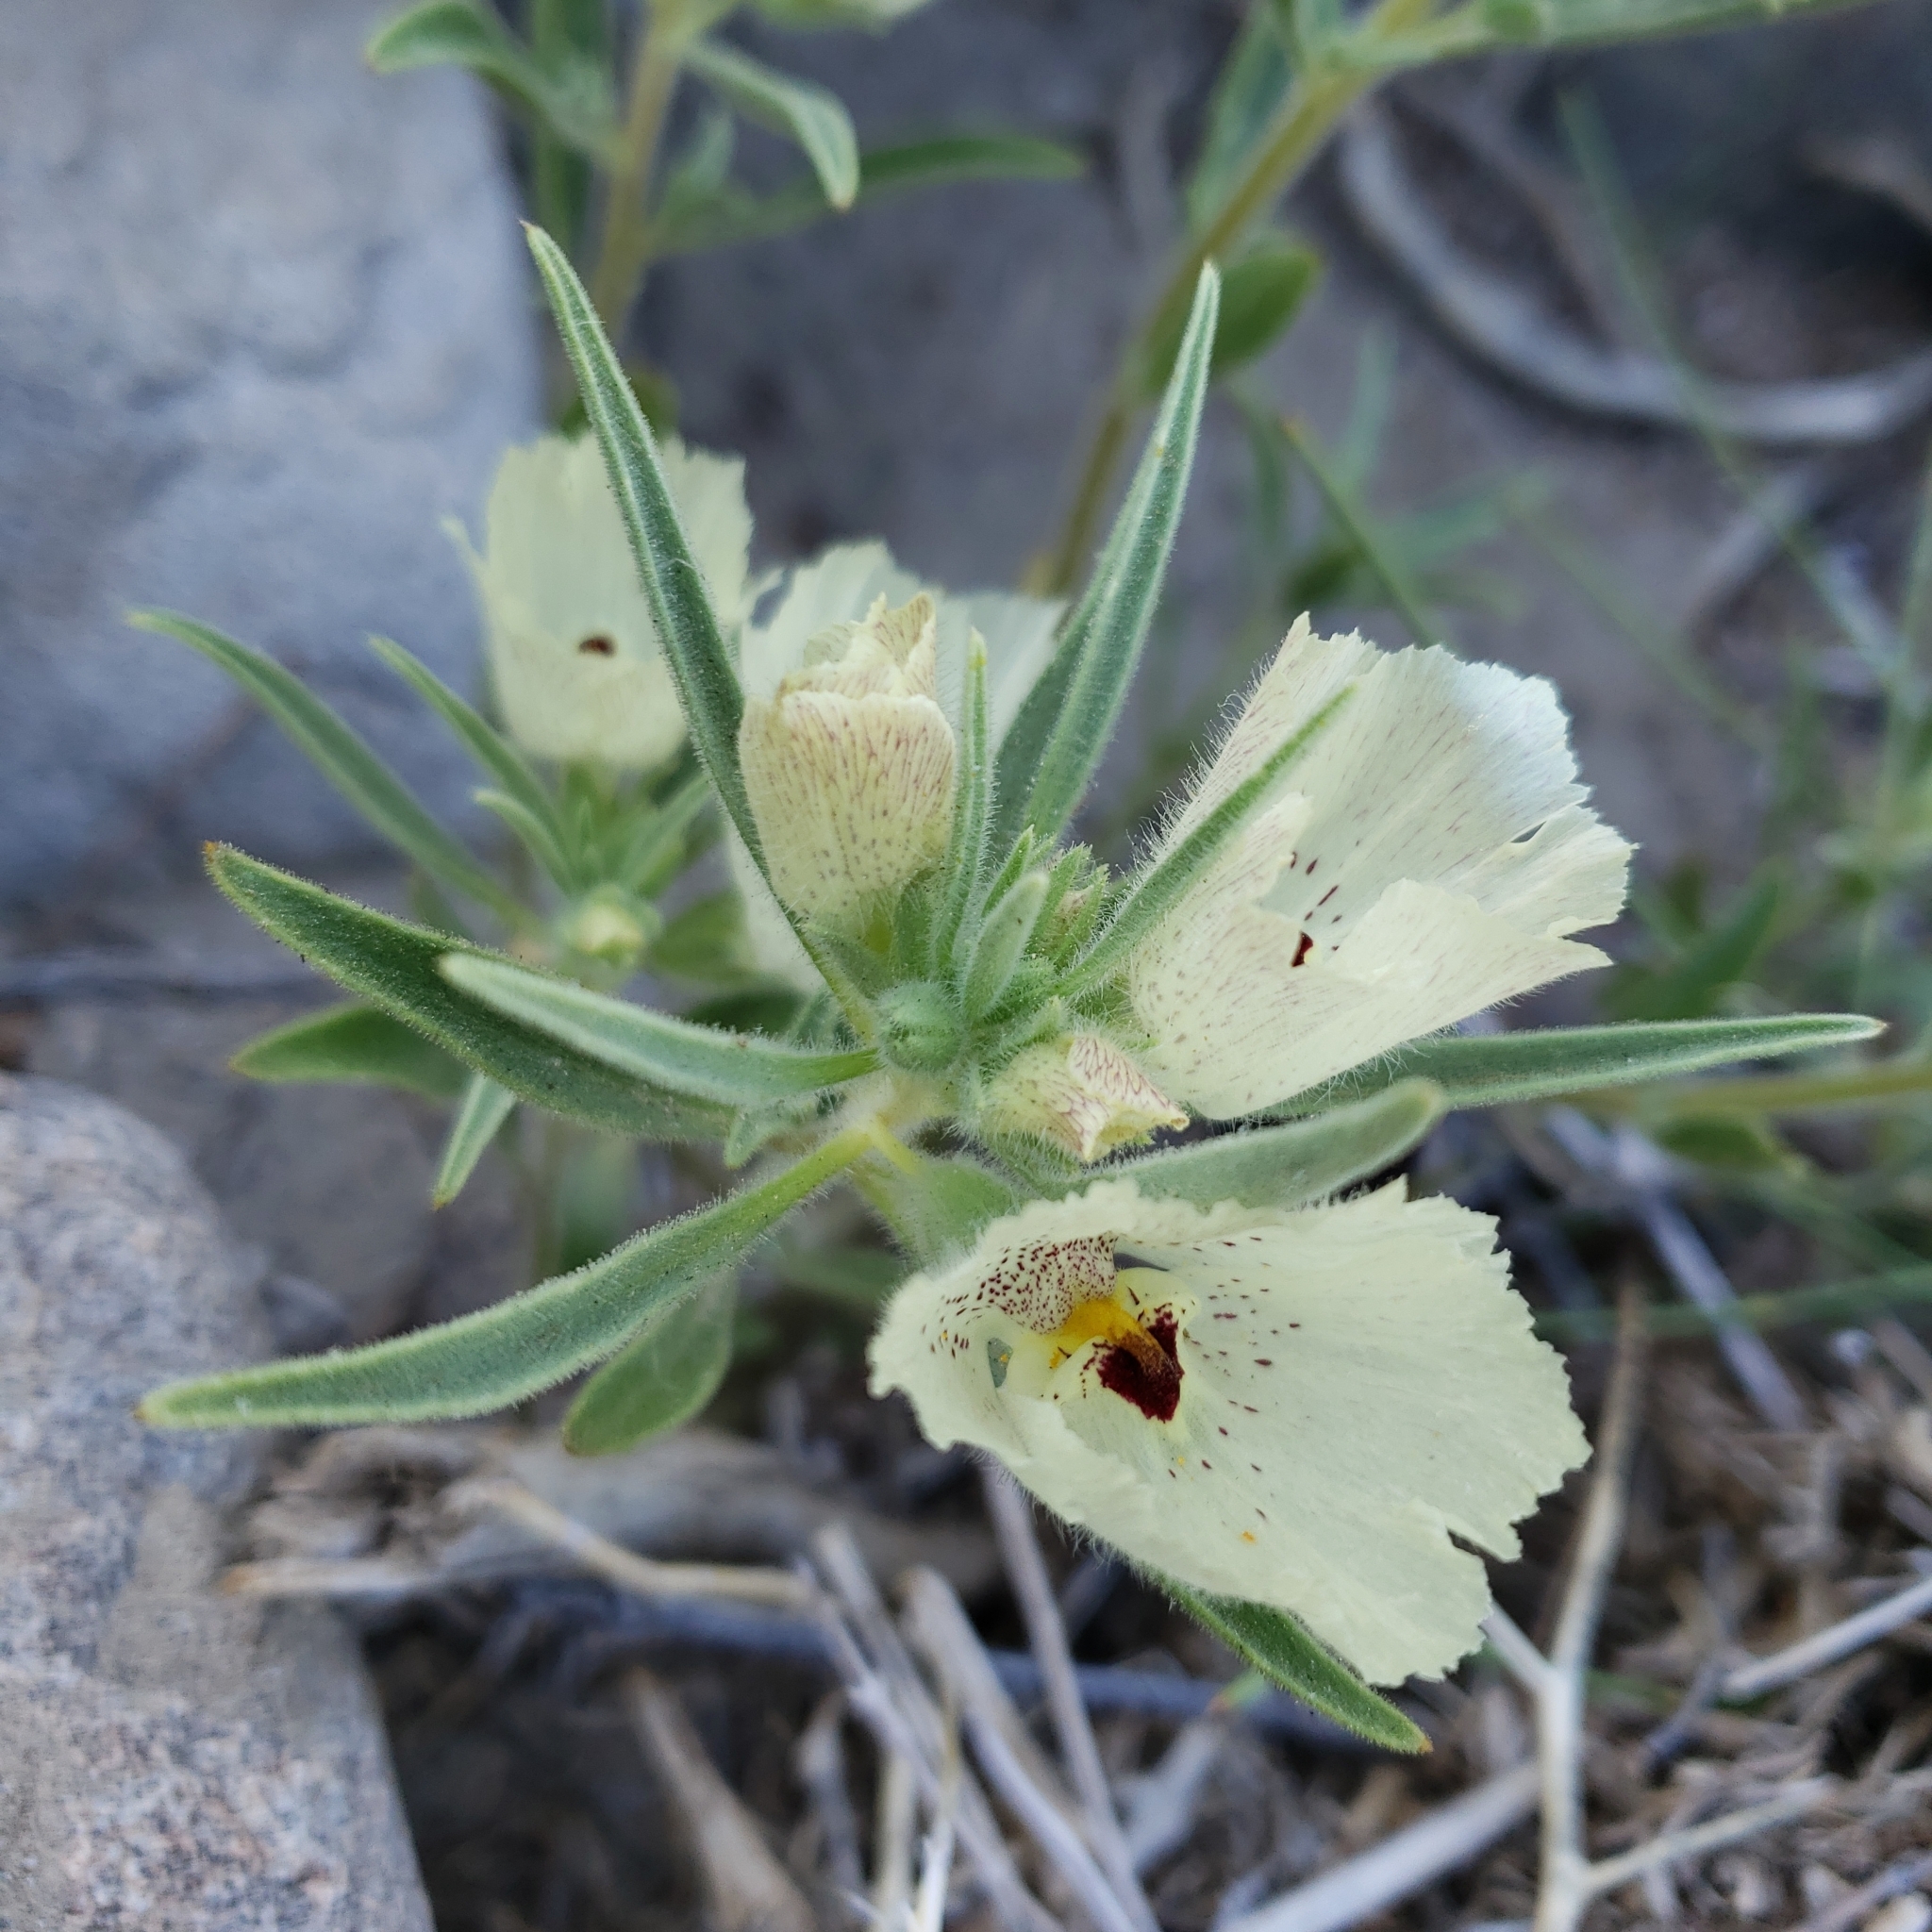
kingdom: Plantae
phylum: Tracheophyta
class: Magnoliopsida
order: Lamiales
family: Plantaginaceae
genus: Mohavea
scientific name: Mohavea confertiflora
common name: Ghost flower
